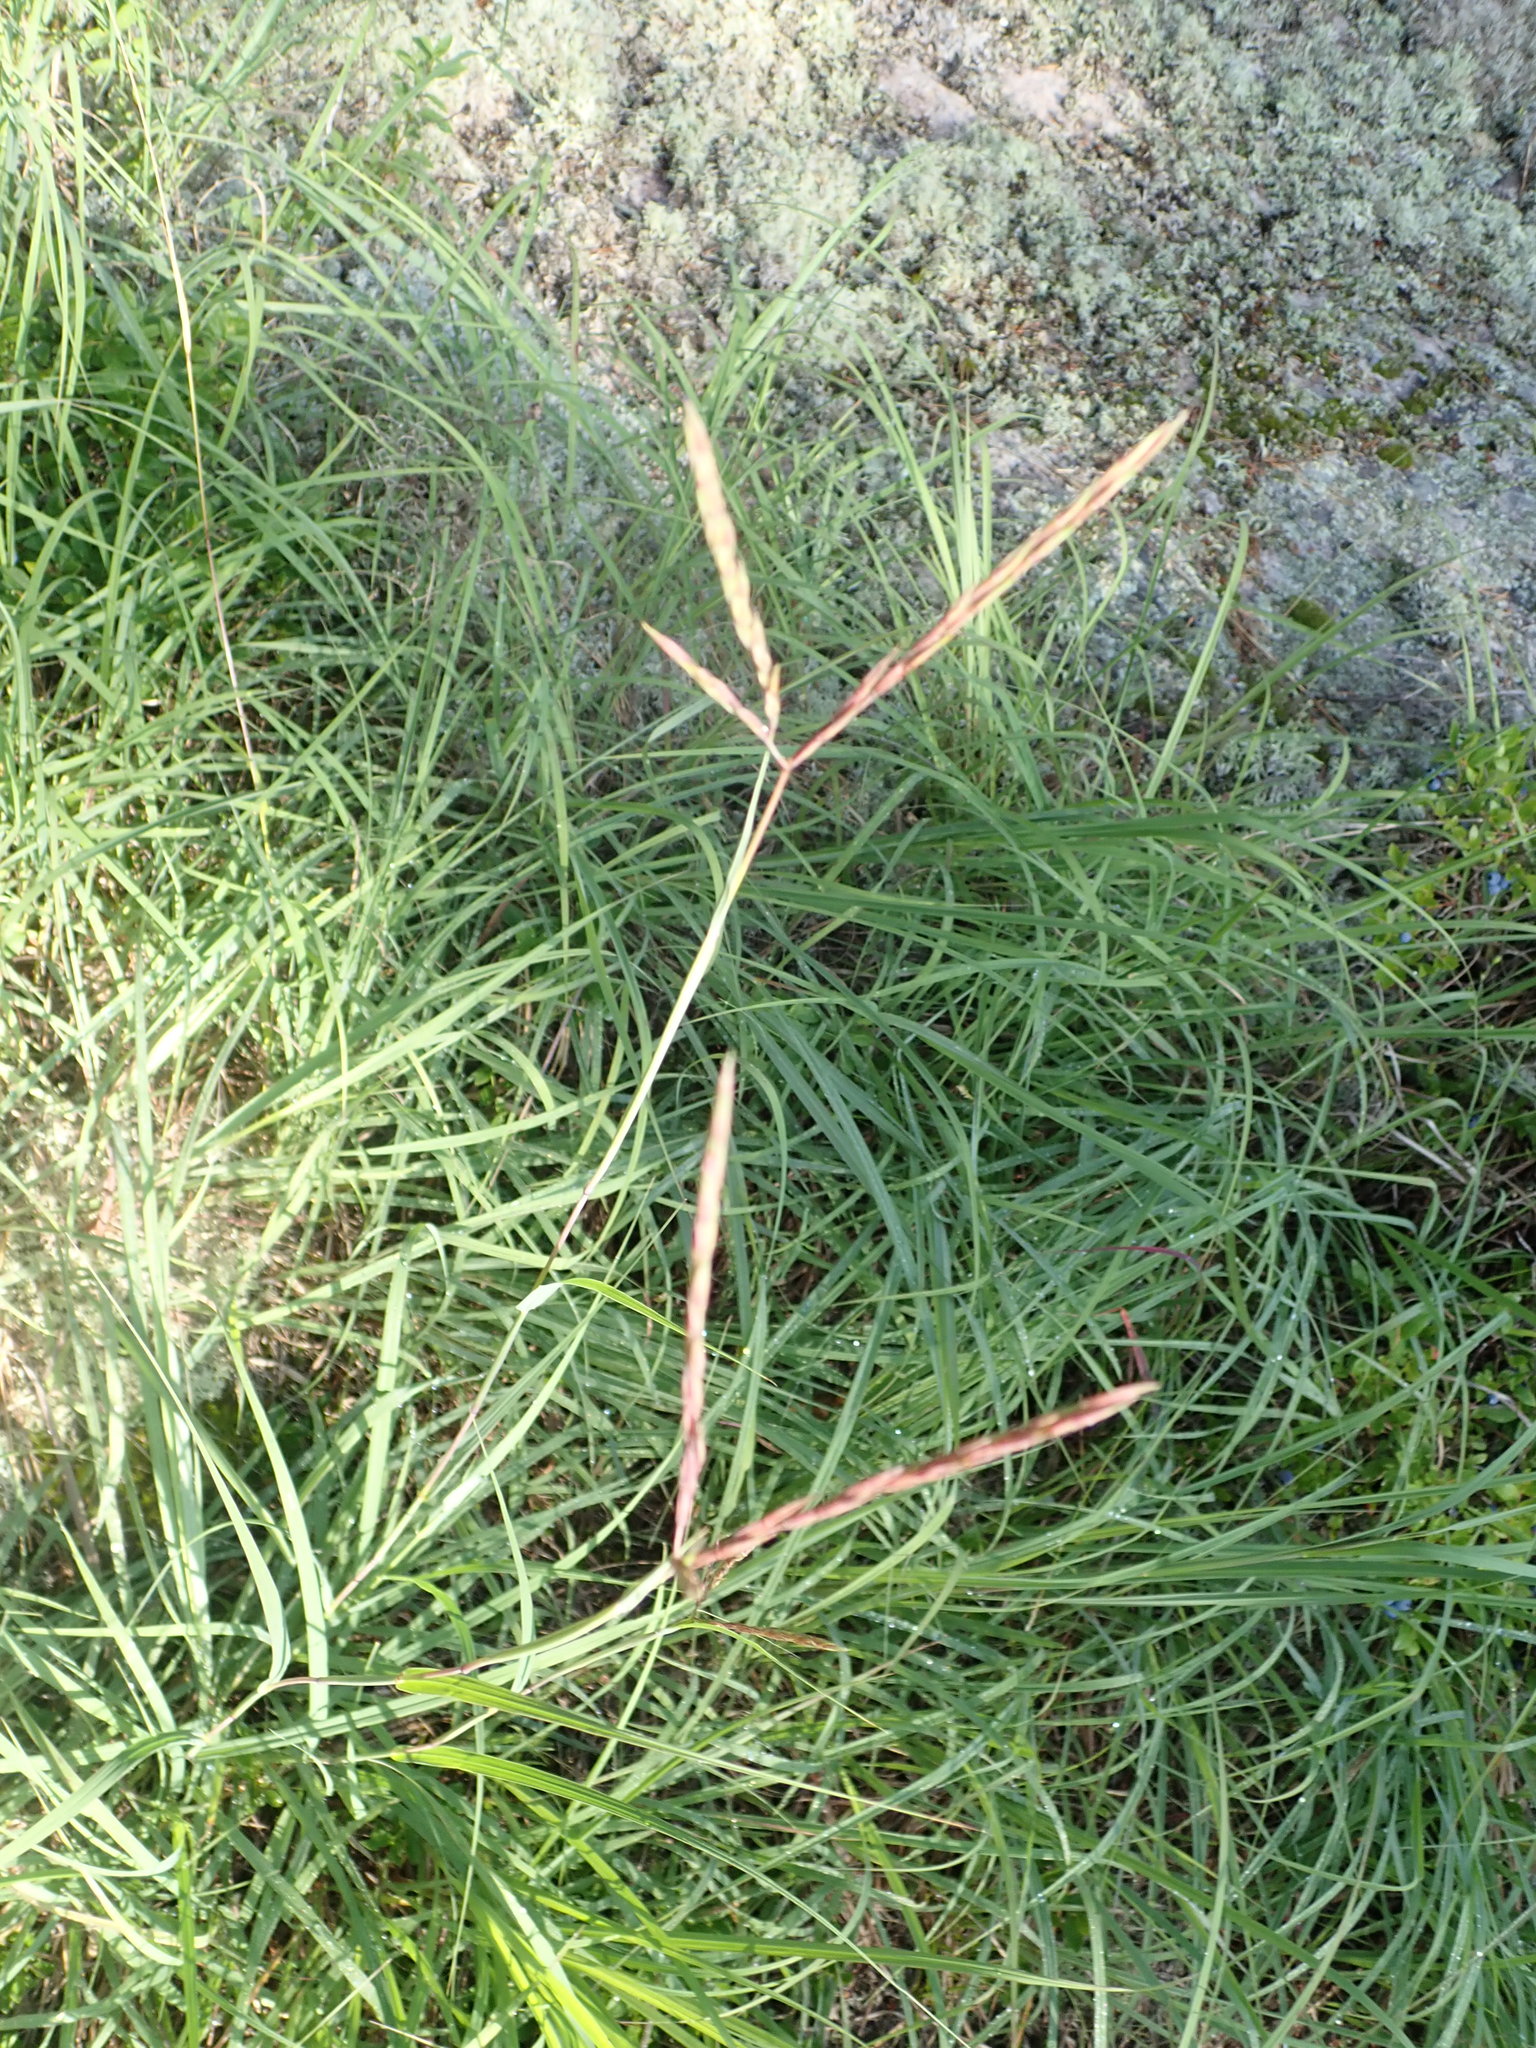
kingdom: Plantae
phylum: Tracheophyta
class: Liliopsida
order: Poales
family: Poaceae
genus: Andropogon
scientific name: Andropogon gerardi
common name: Big bluestem
